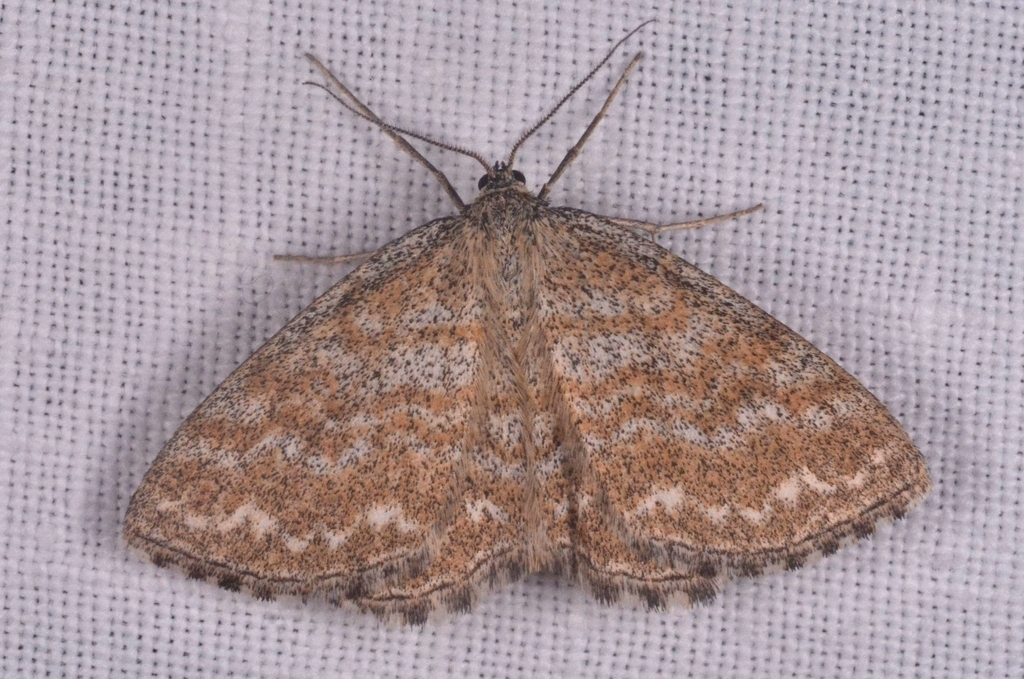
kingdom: Animalia
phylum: Arthropoda
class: Insecta
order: Lepidoptera
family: Geometridae
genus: Scopula
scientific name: Scopula immorata
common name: Lewes wave
